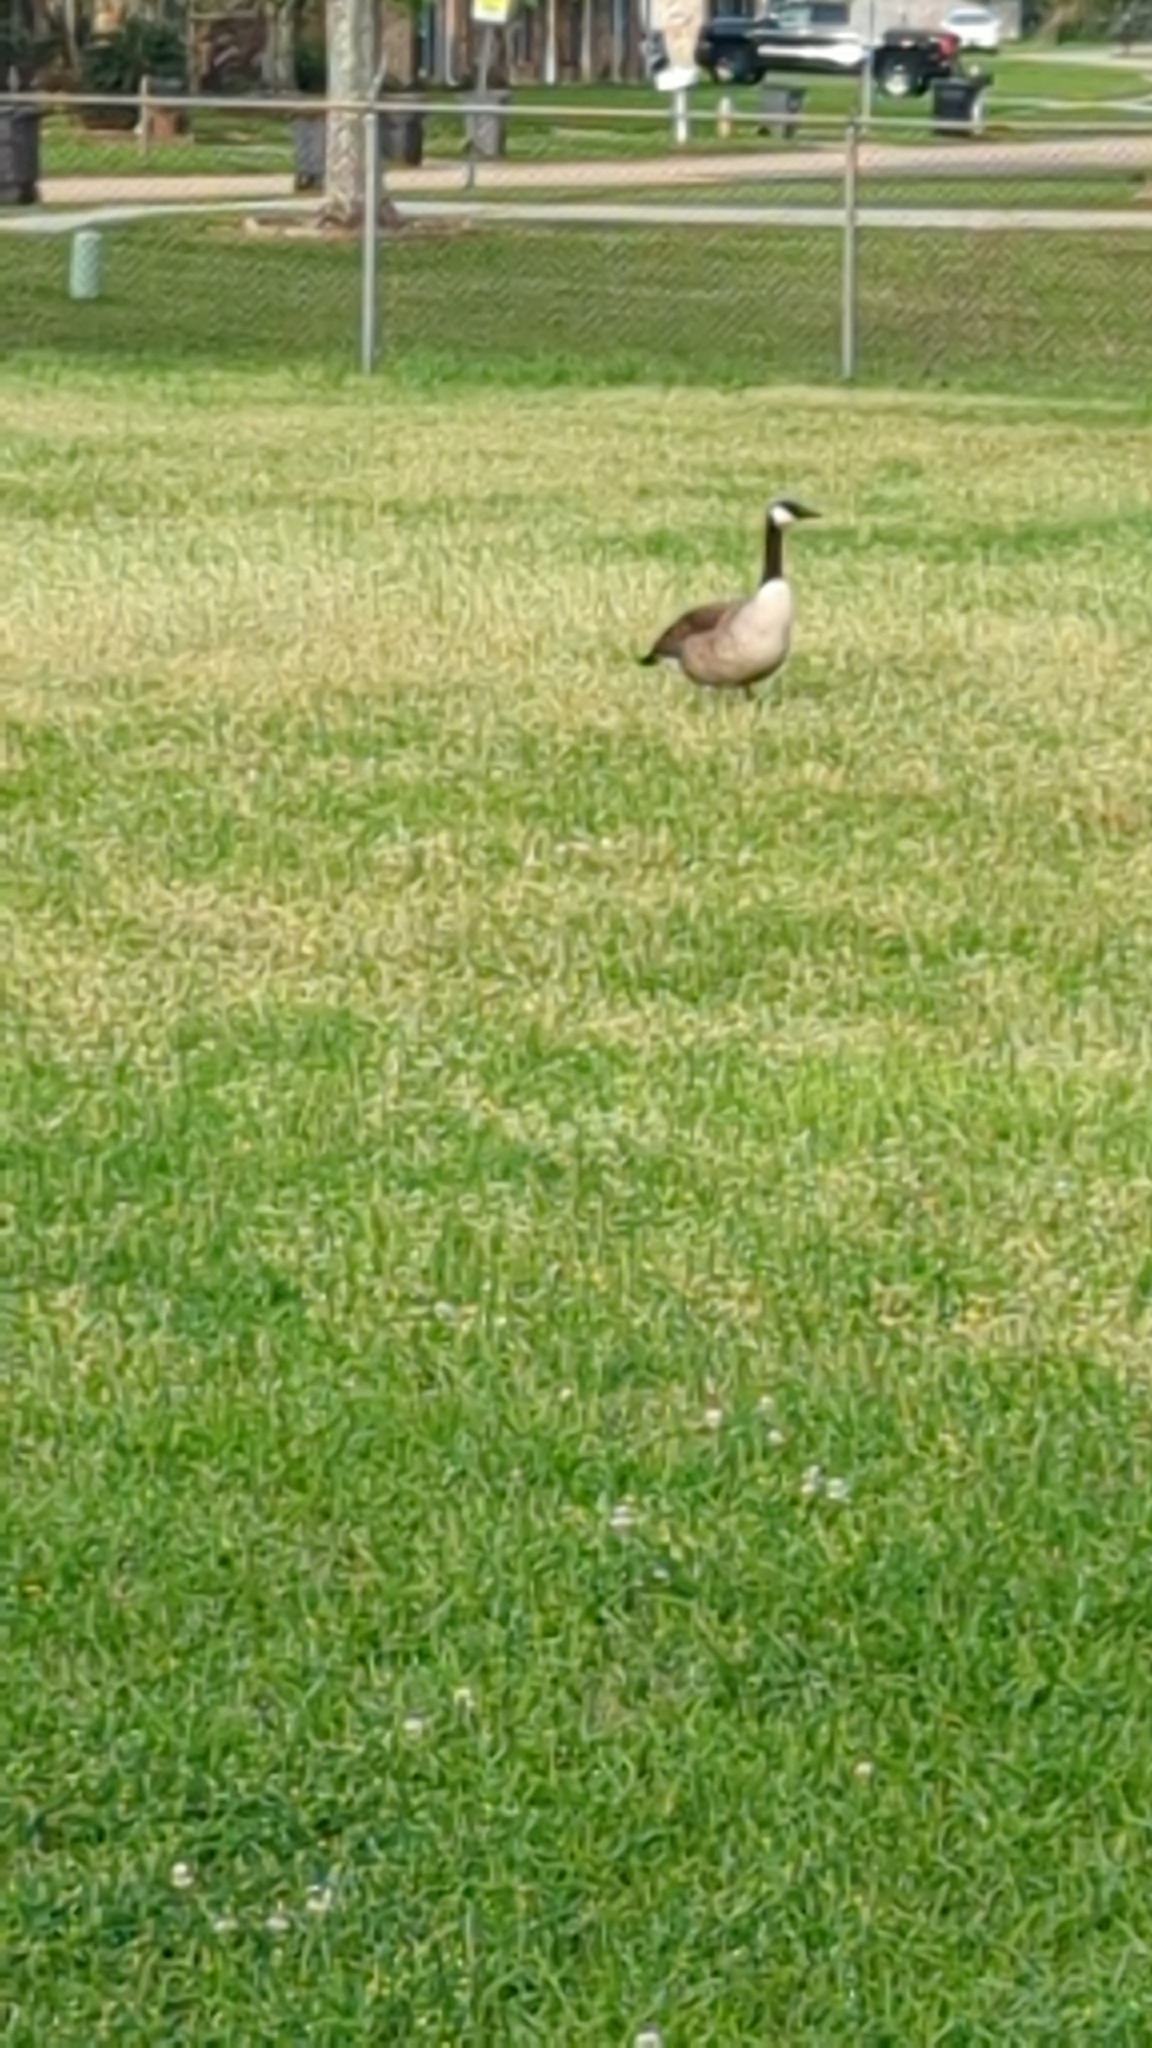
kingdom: Animalia
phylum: Chordata
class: Aves
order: Anseriformes
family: Anatidae
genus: Branta
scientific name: Branta canadensis
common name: Canada goose
